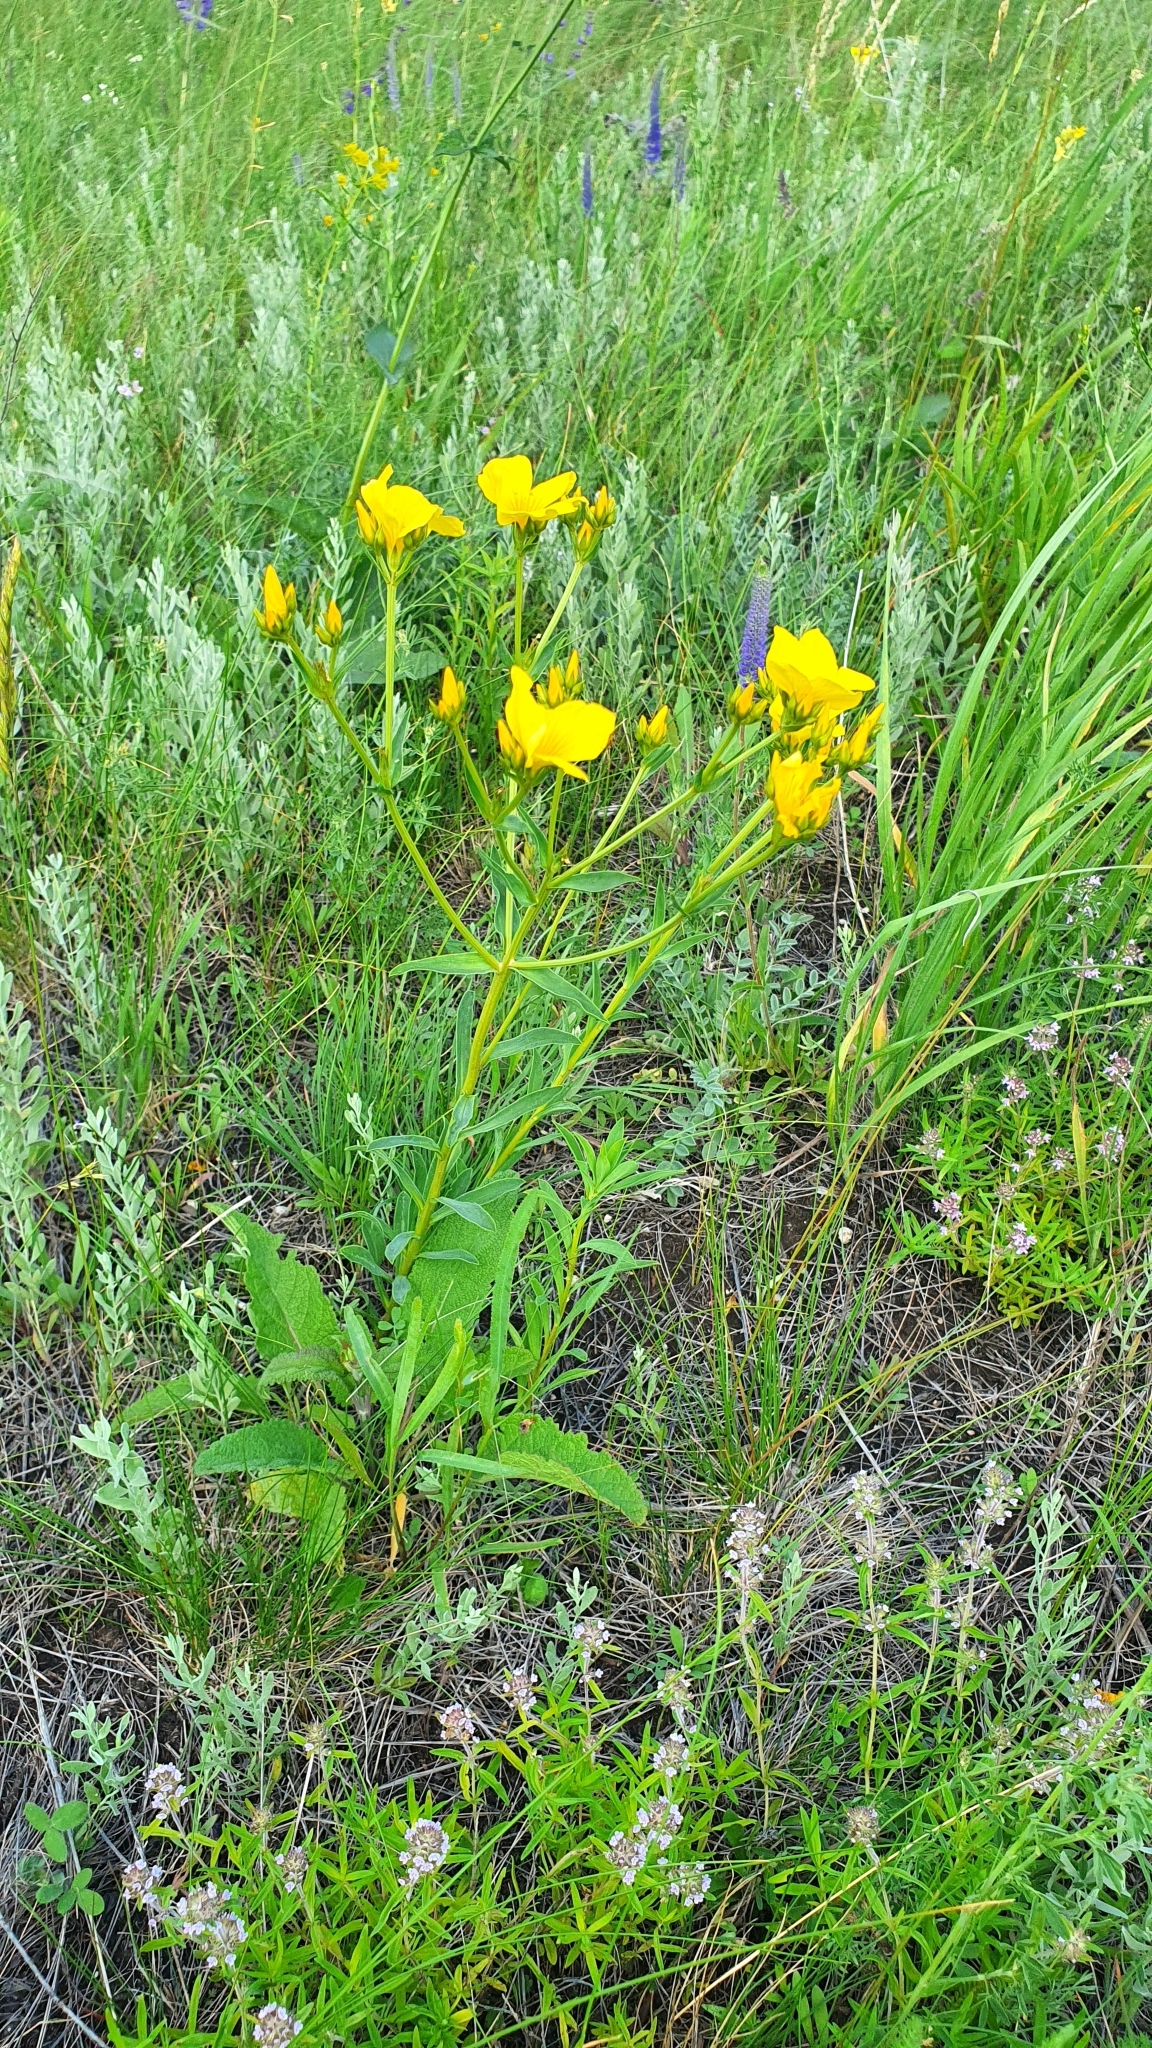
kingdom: Plantae
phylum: Tracheophyta
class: Magnoliopsida
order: Malpighiales
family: Linaceae
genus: Linum
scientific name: Linum ucranicum
